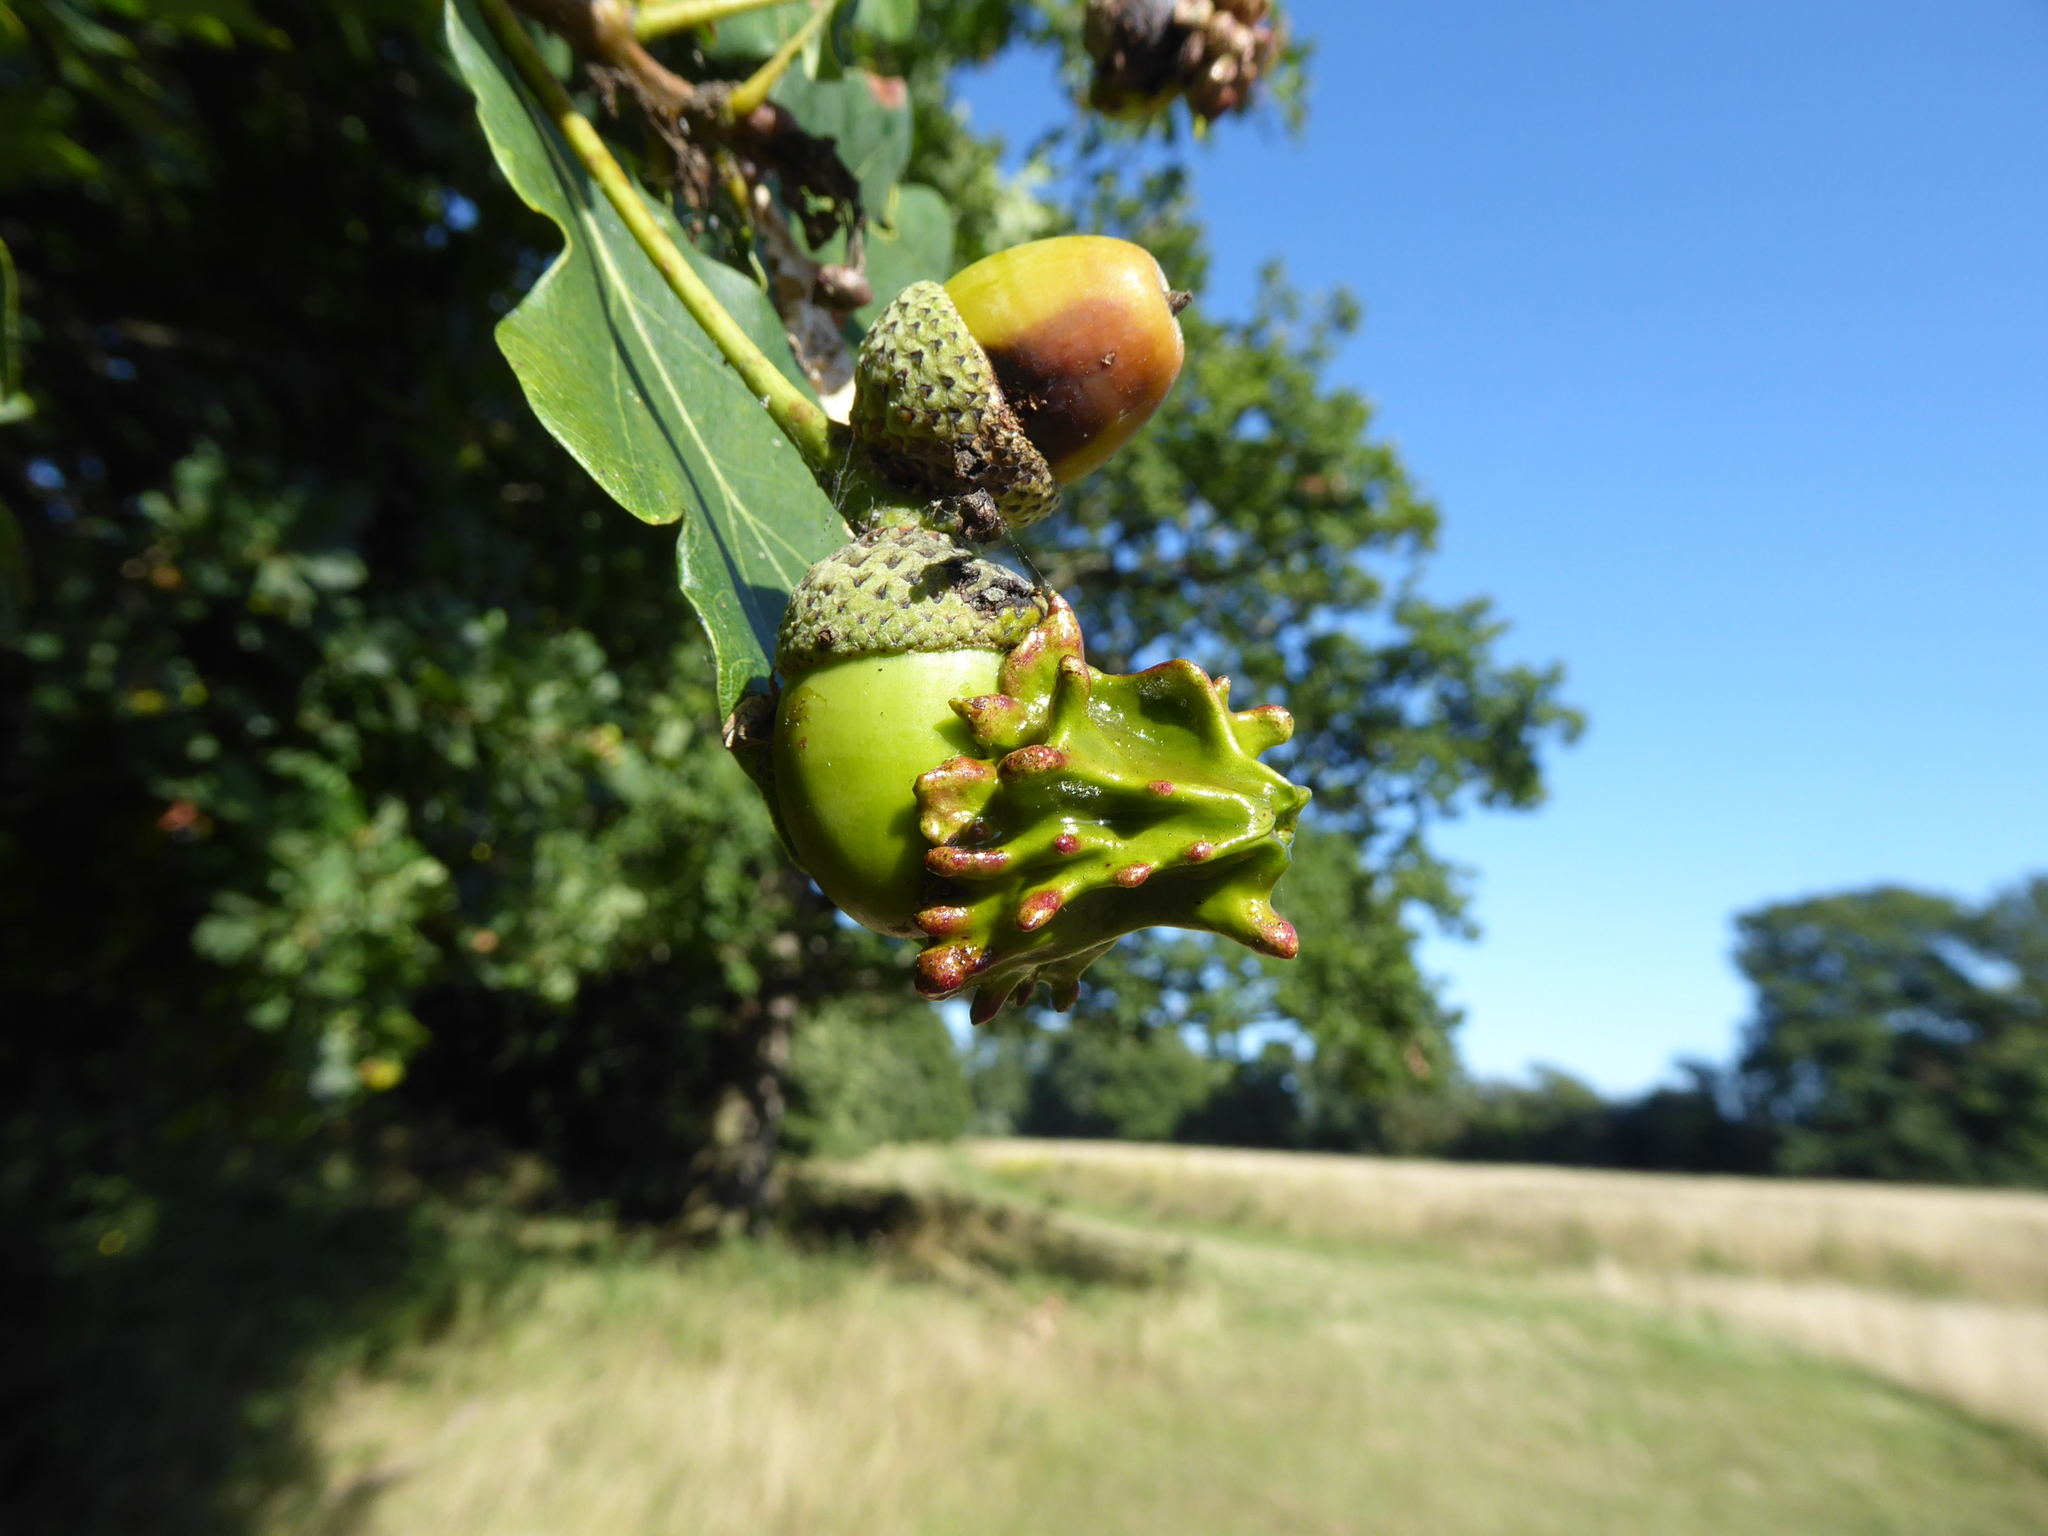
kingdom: Animalia
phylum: Arthropoda
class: Insecta
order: Hymenoptera
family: Cynipidae
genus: Andricus
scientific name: Andricus quercuscalicis
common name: Knopper gall
